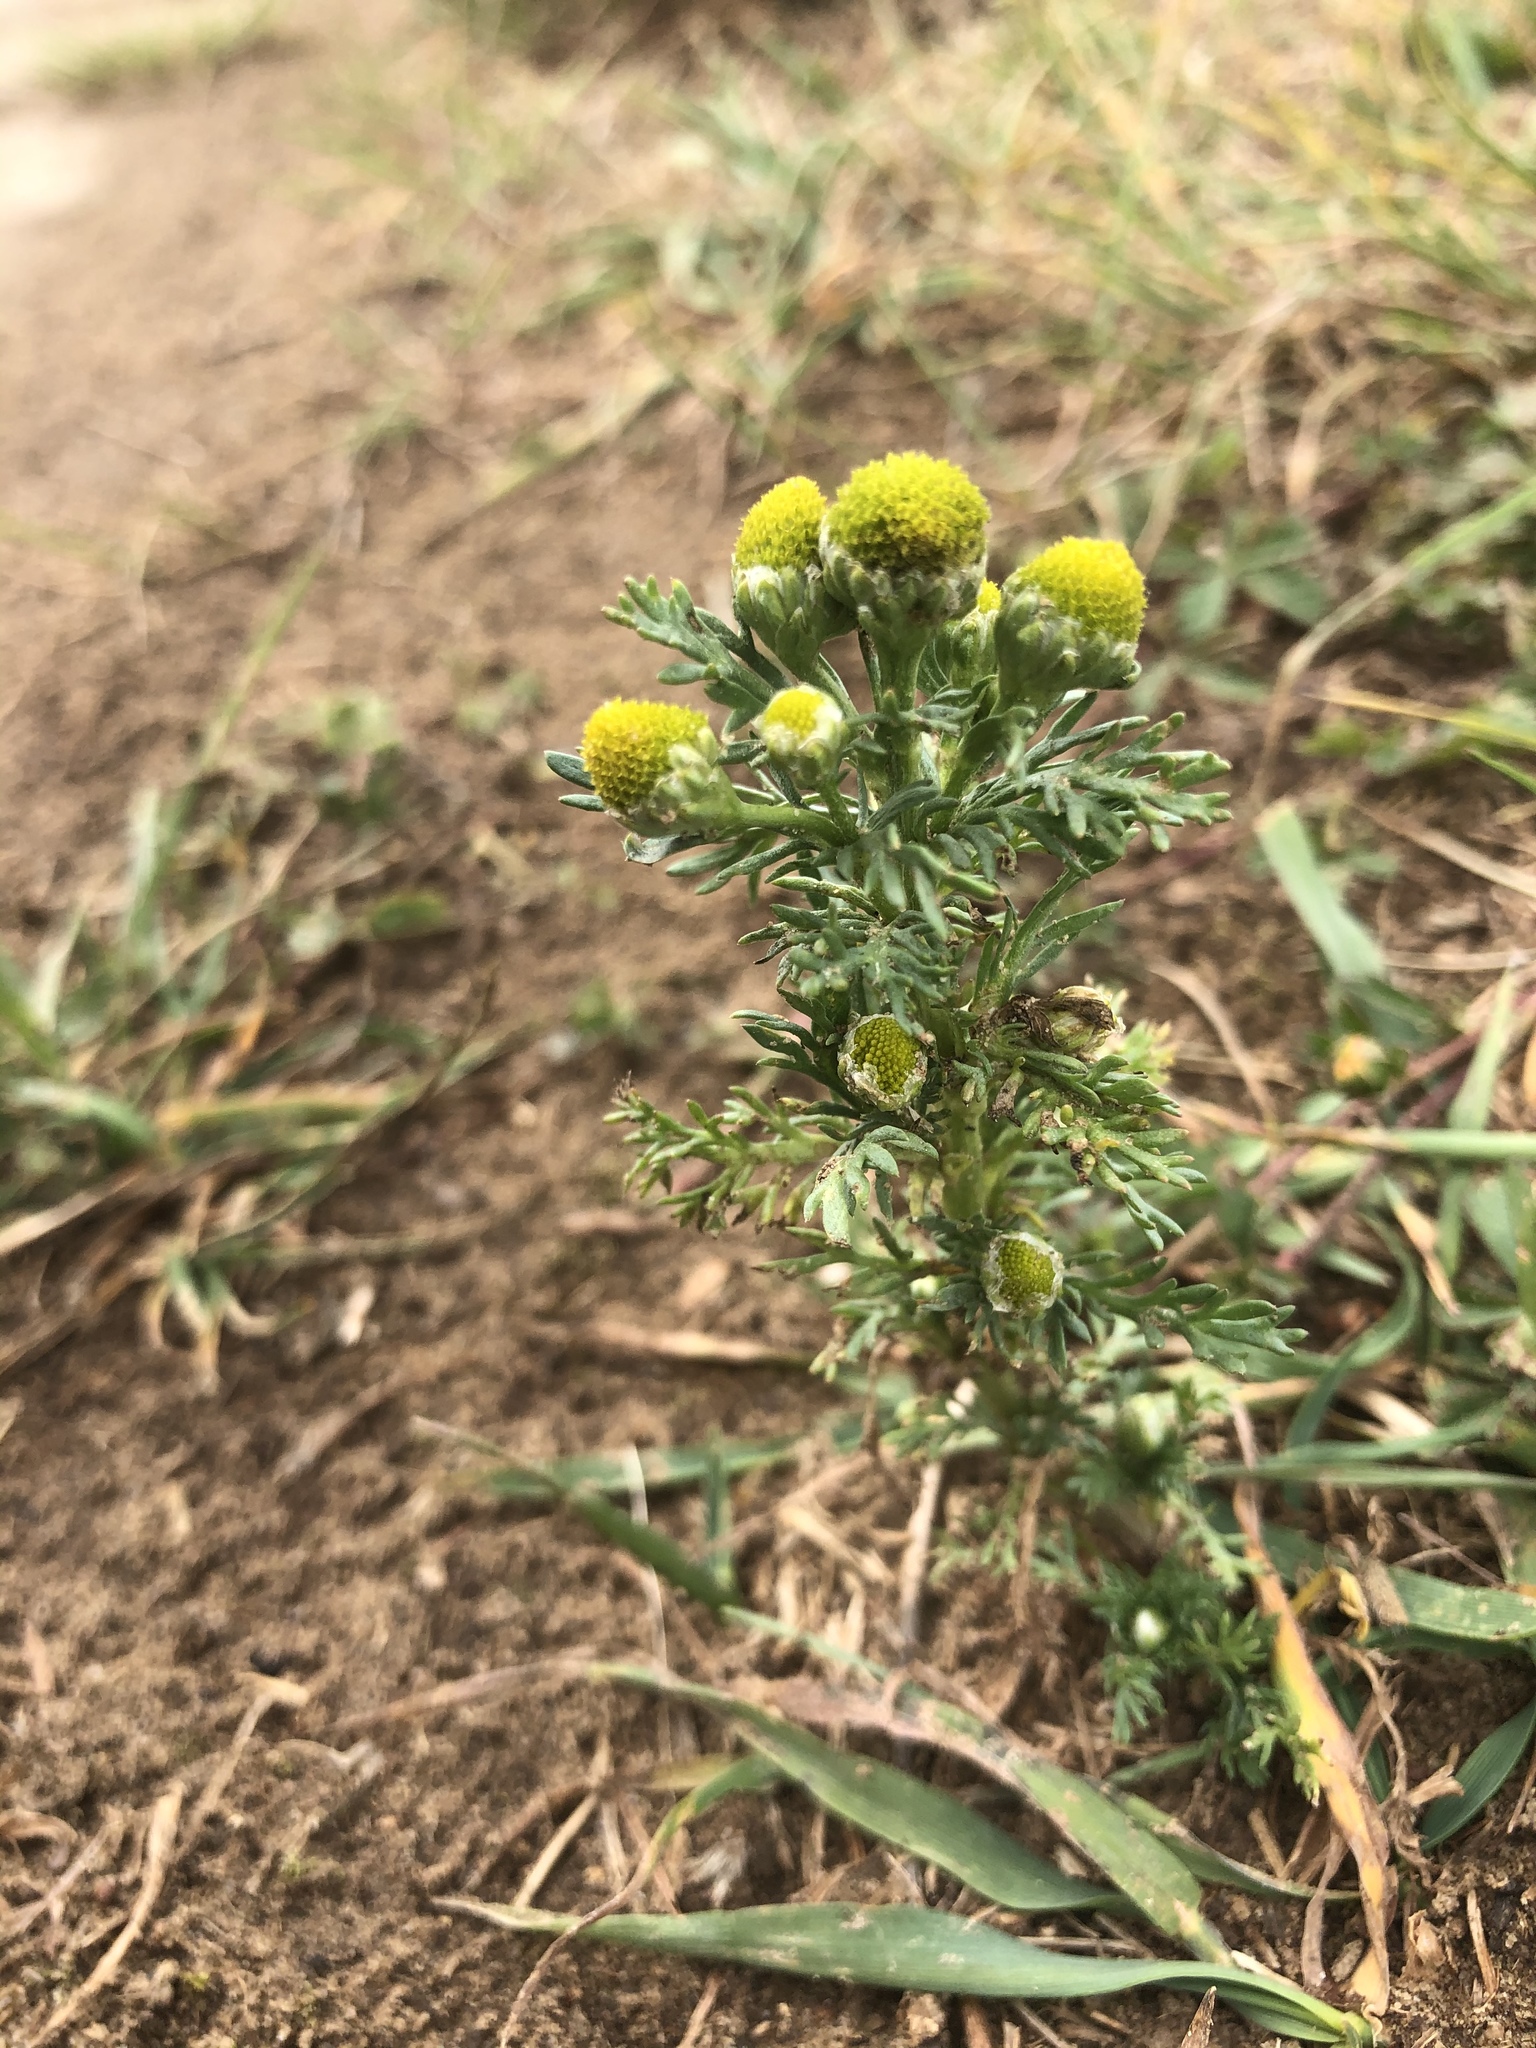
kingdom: Plantae
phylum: Tracheophyta
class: Magnoliopsida
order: Asterales
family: Asteraceae
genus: Matricaria
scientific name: Matricaria discoidea
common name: Disc mayweed
